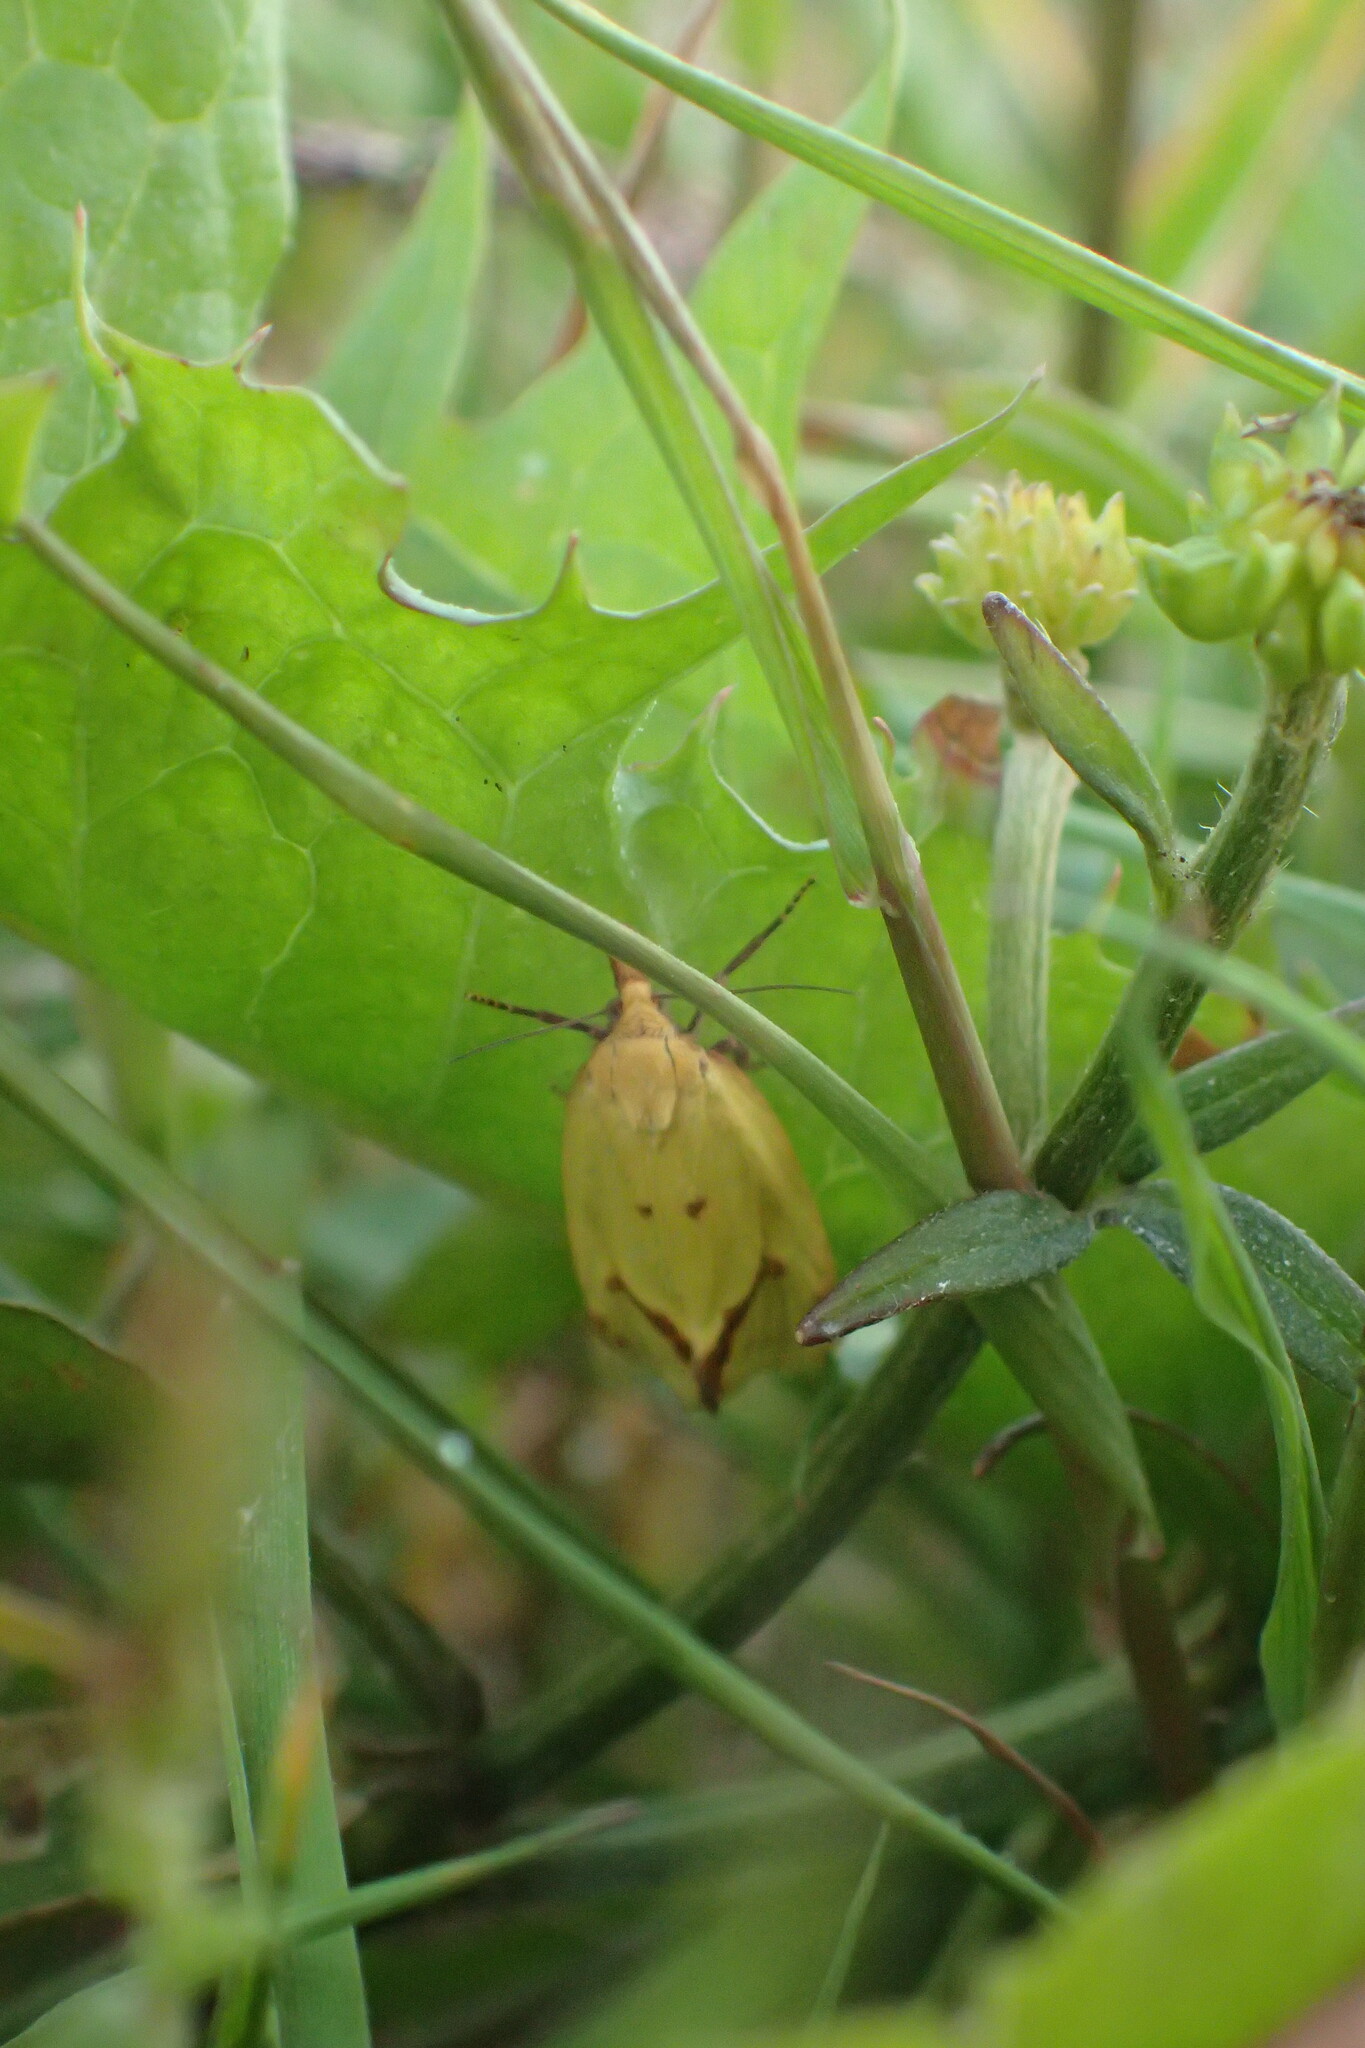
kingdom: Animalia
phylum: Arthropoda
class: Insecta
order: Lepidoptera
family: Tortricidae
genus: Agapeta
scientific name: Agapeta hamana
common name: Common yellow conch
